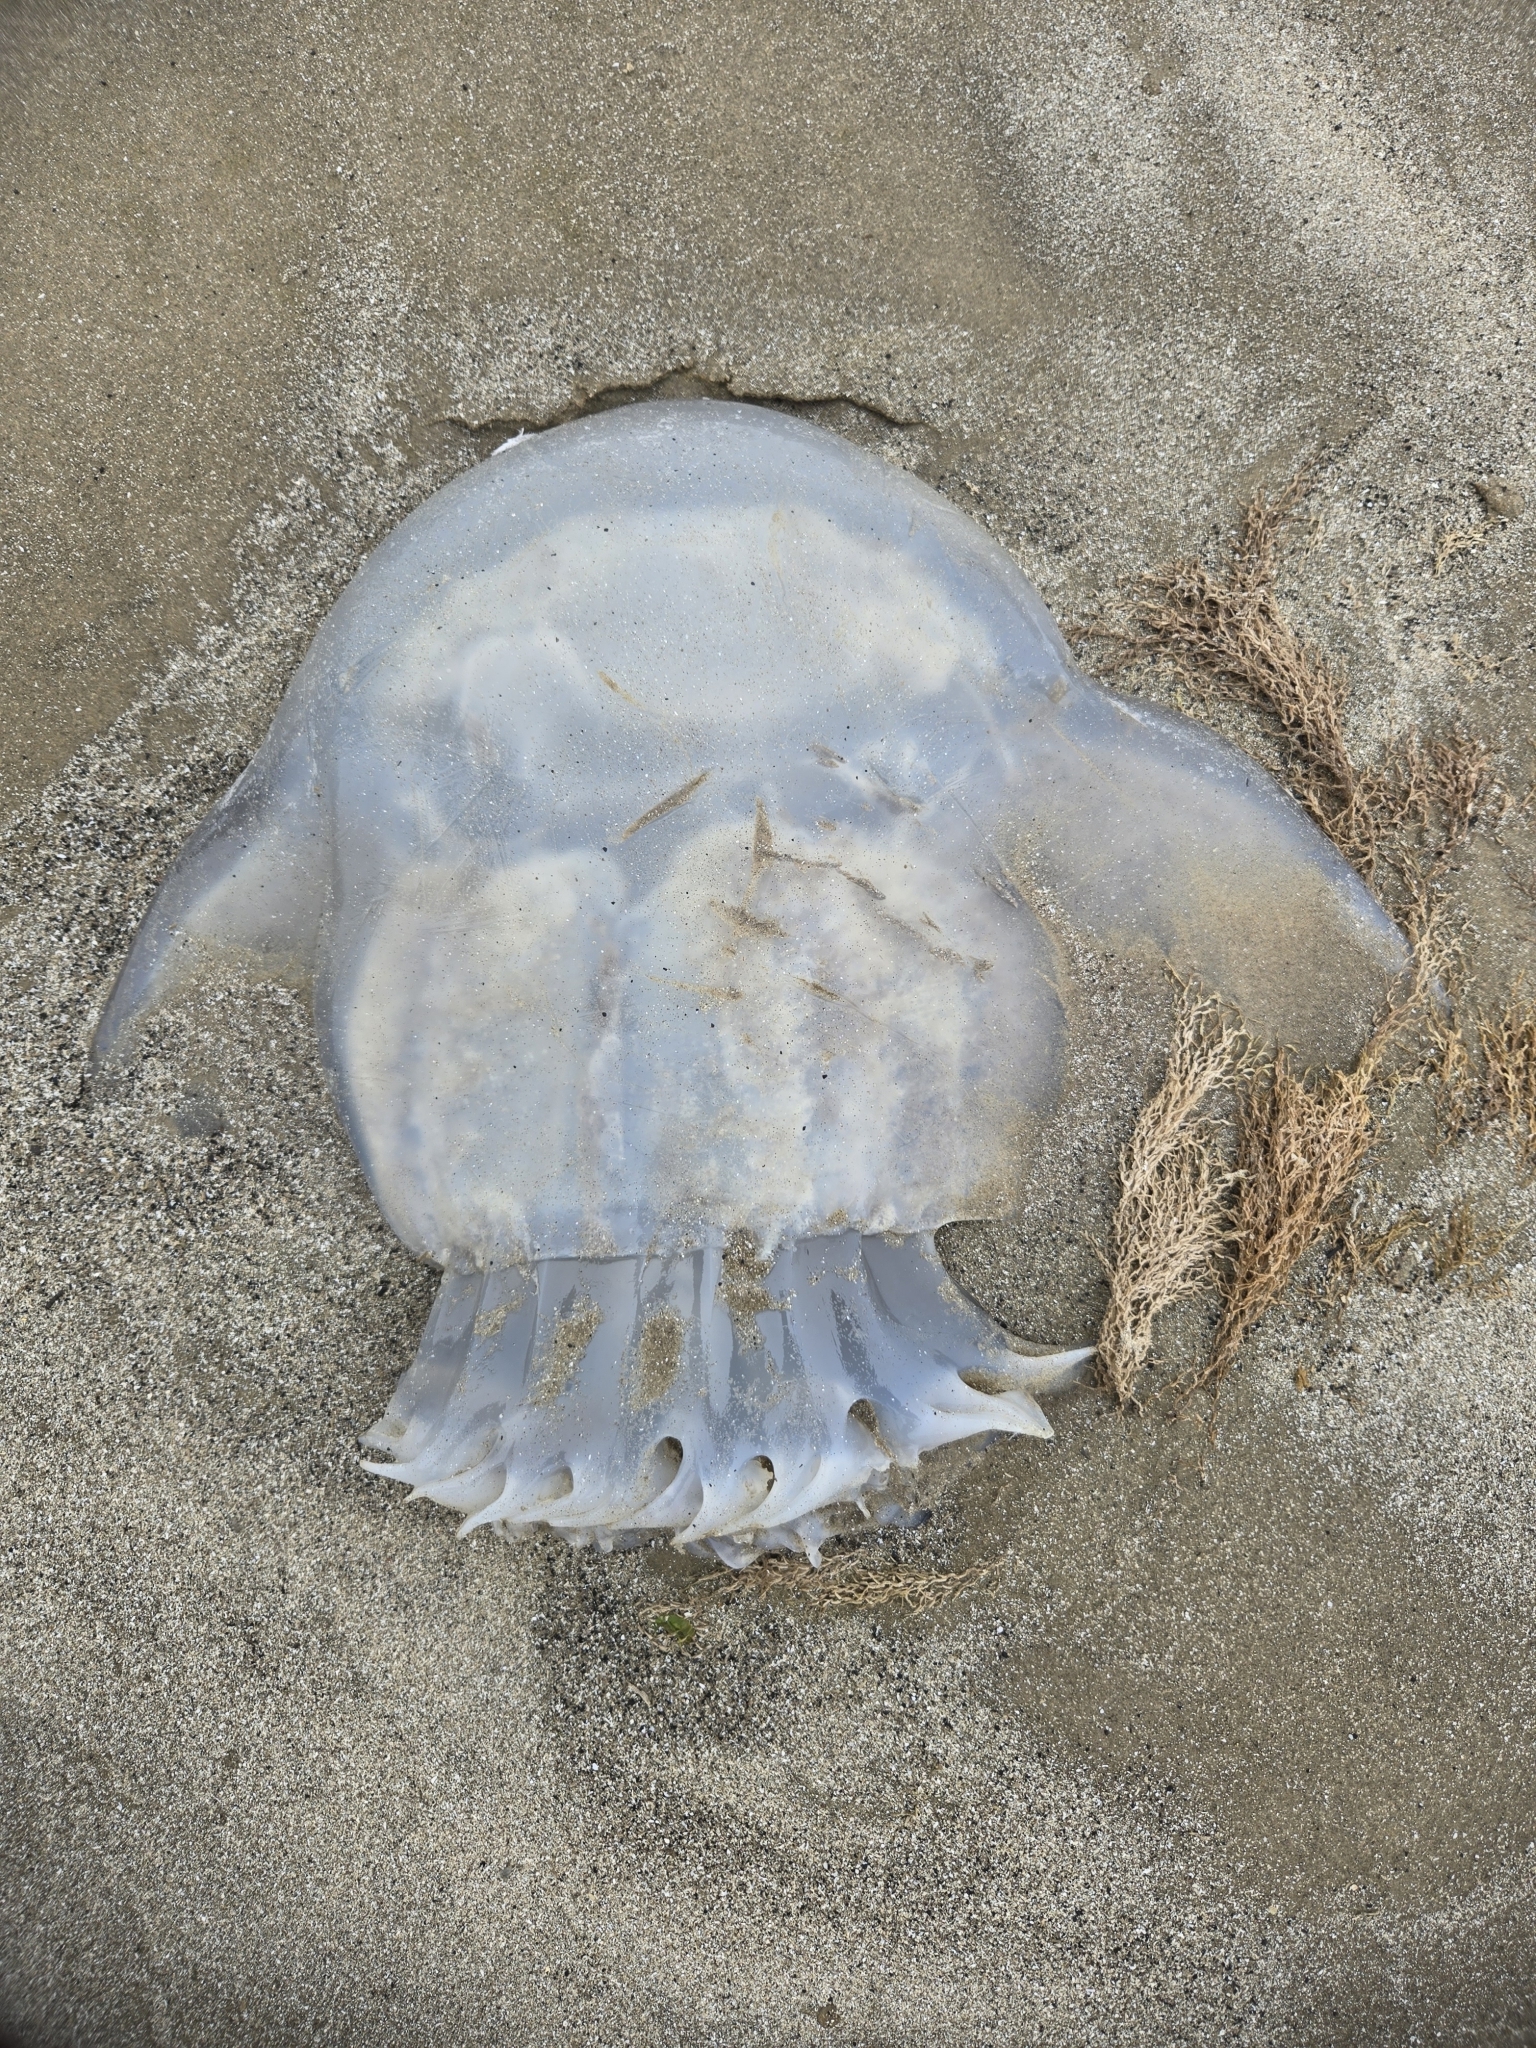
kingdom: Animalia
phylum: Cnidaria
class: Scyphozoa
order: Rhizostomeae
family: Stomolophidae
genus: Stomolophus
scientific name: Stomolophus meleagris
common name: Cabbagehead
